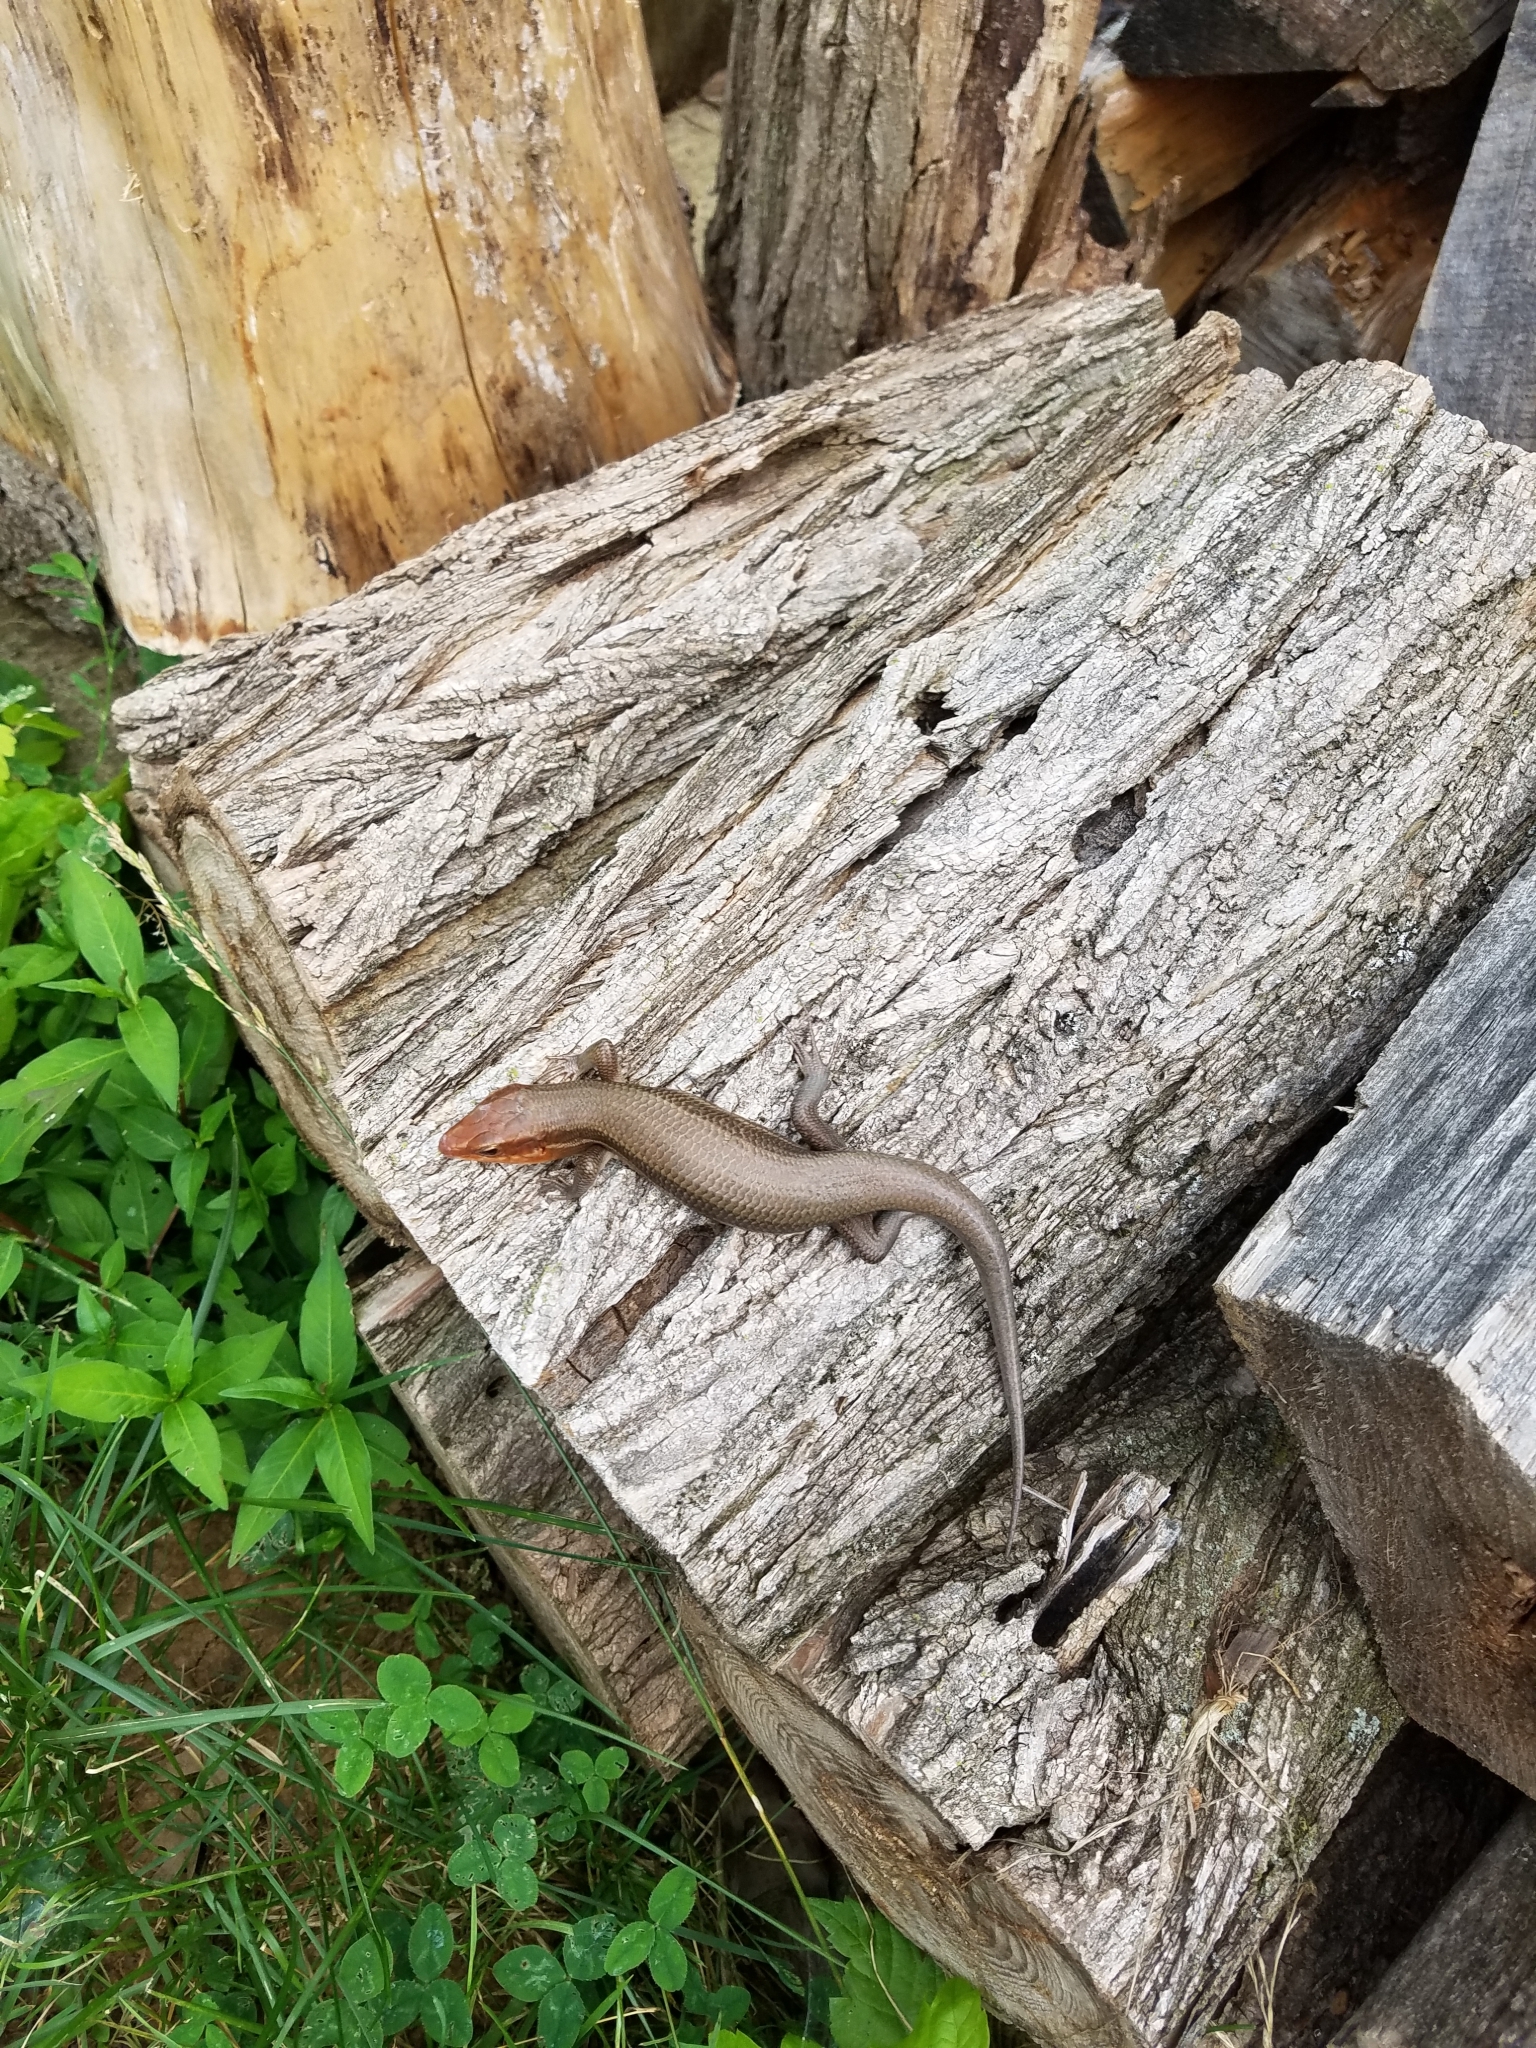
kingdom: Animalia
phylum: Chordata
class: Squamata
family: Scincidae
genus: Plestiodon
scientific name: Plestiodon laticeps
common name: Broadhead skink
